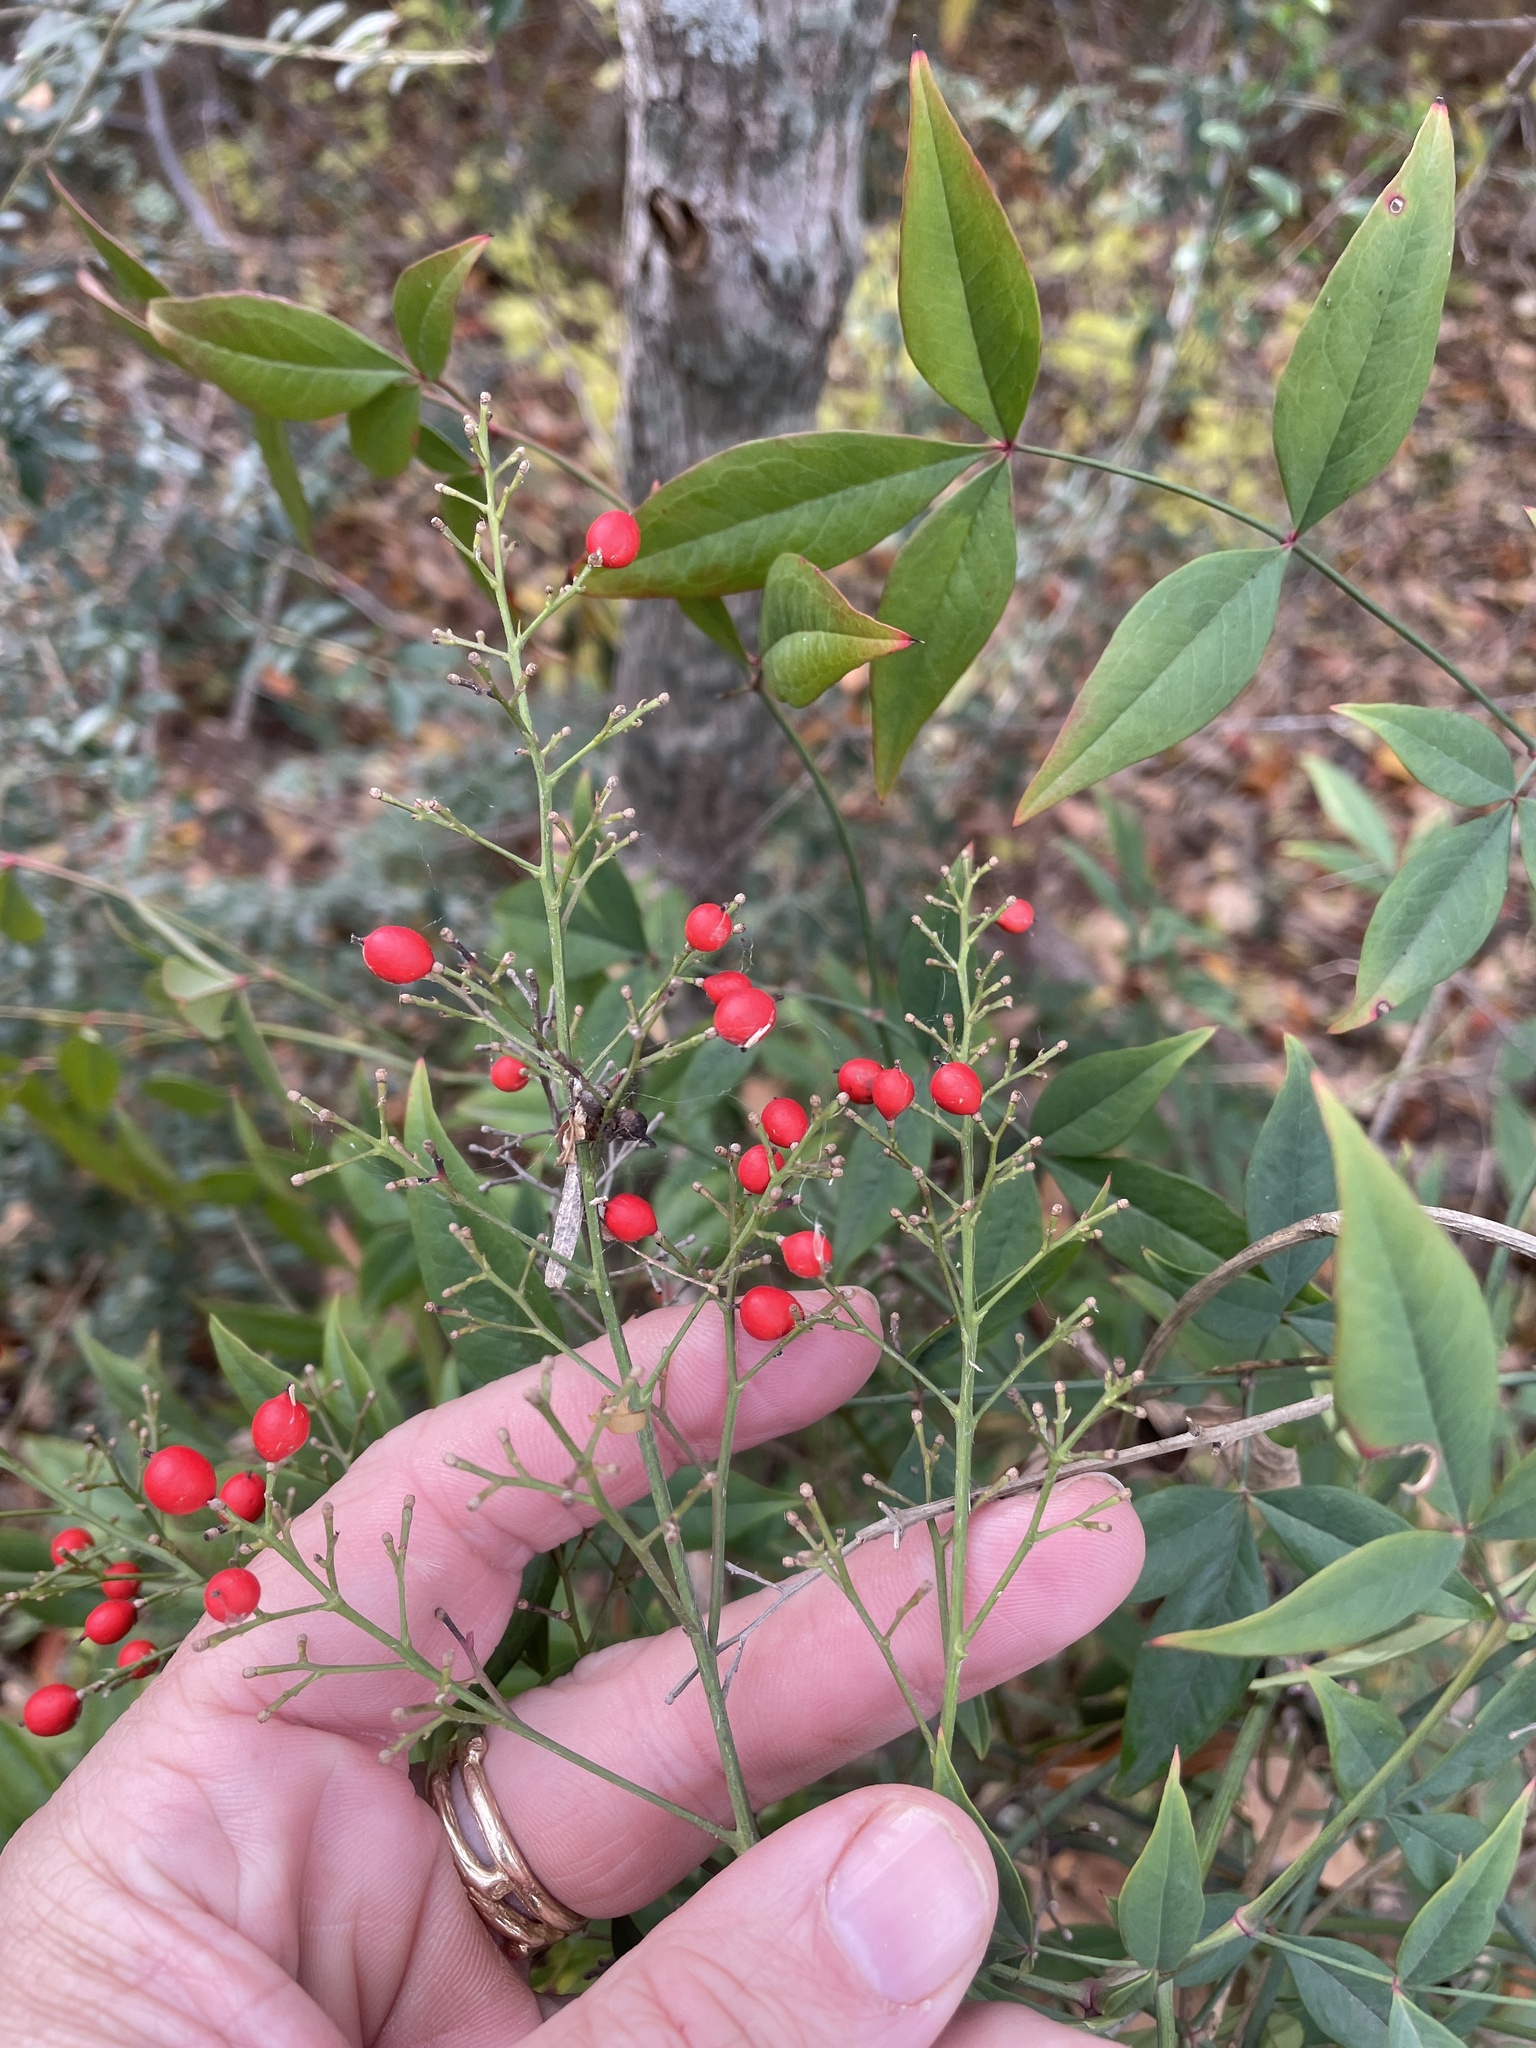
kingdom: Plantae
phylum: Tracheophyta
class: Magnoliopsida
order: Ranunculales
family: Berberidaceae
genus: Nandina
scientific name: Nandina domestica
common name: Sacred bamboo
